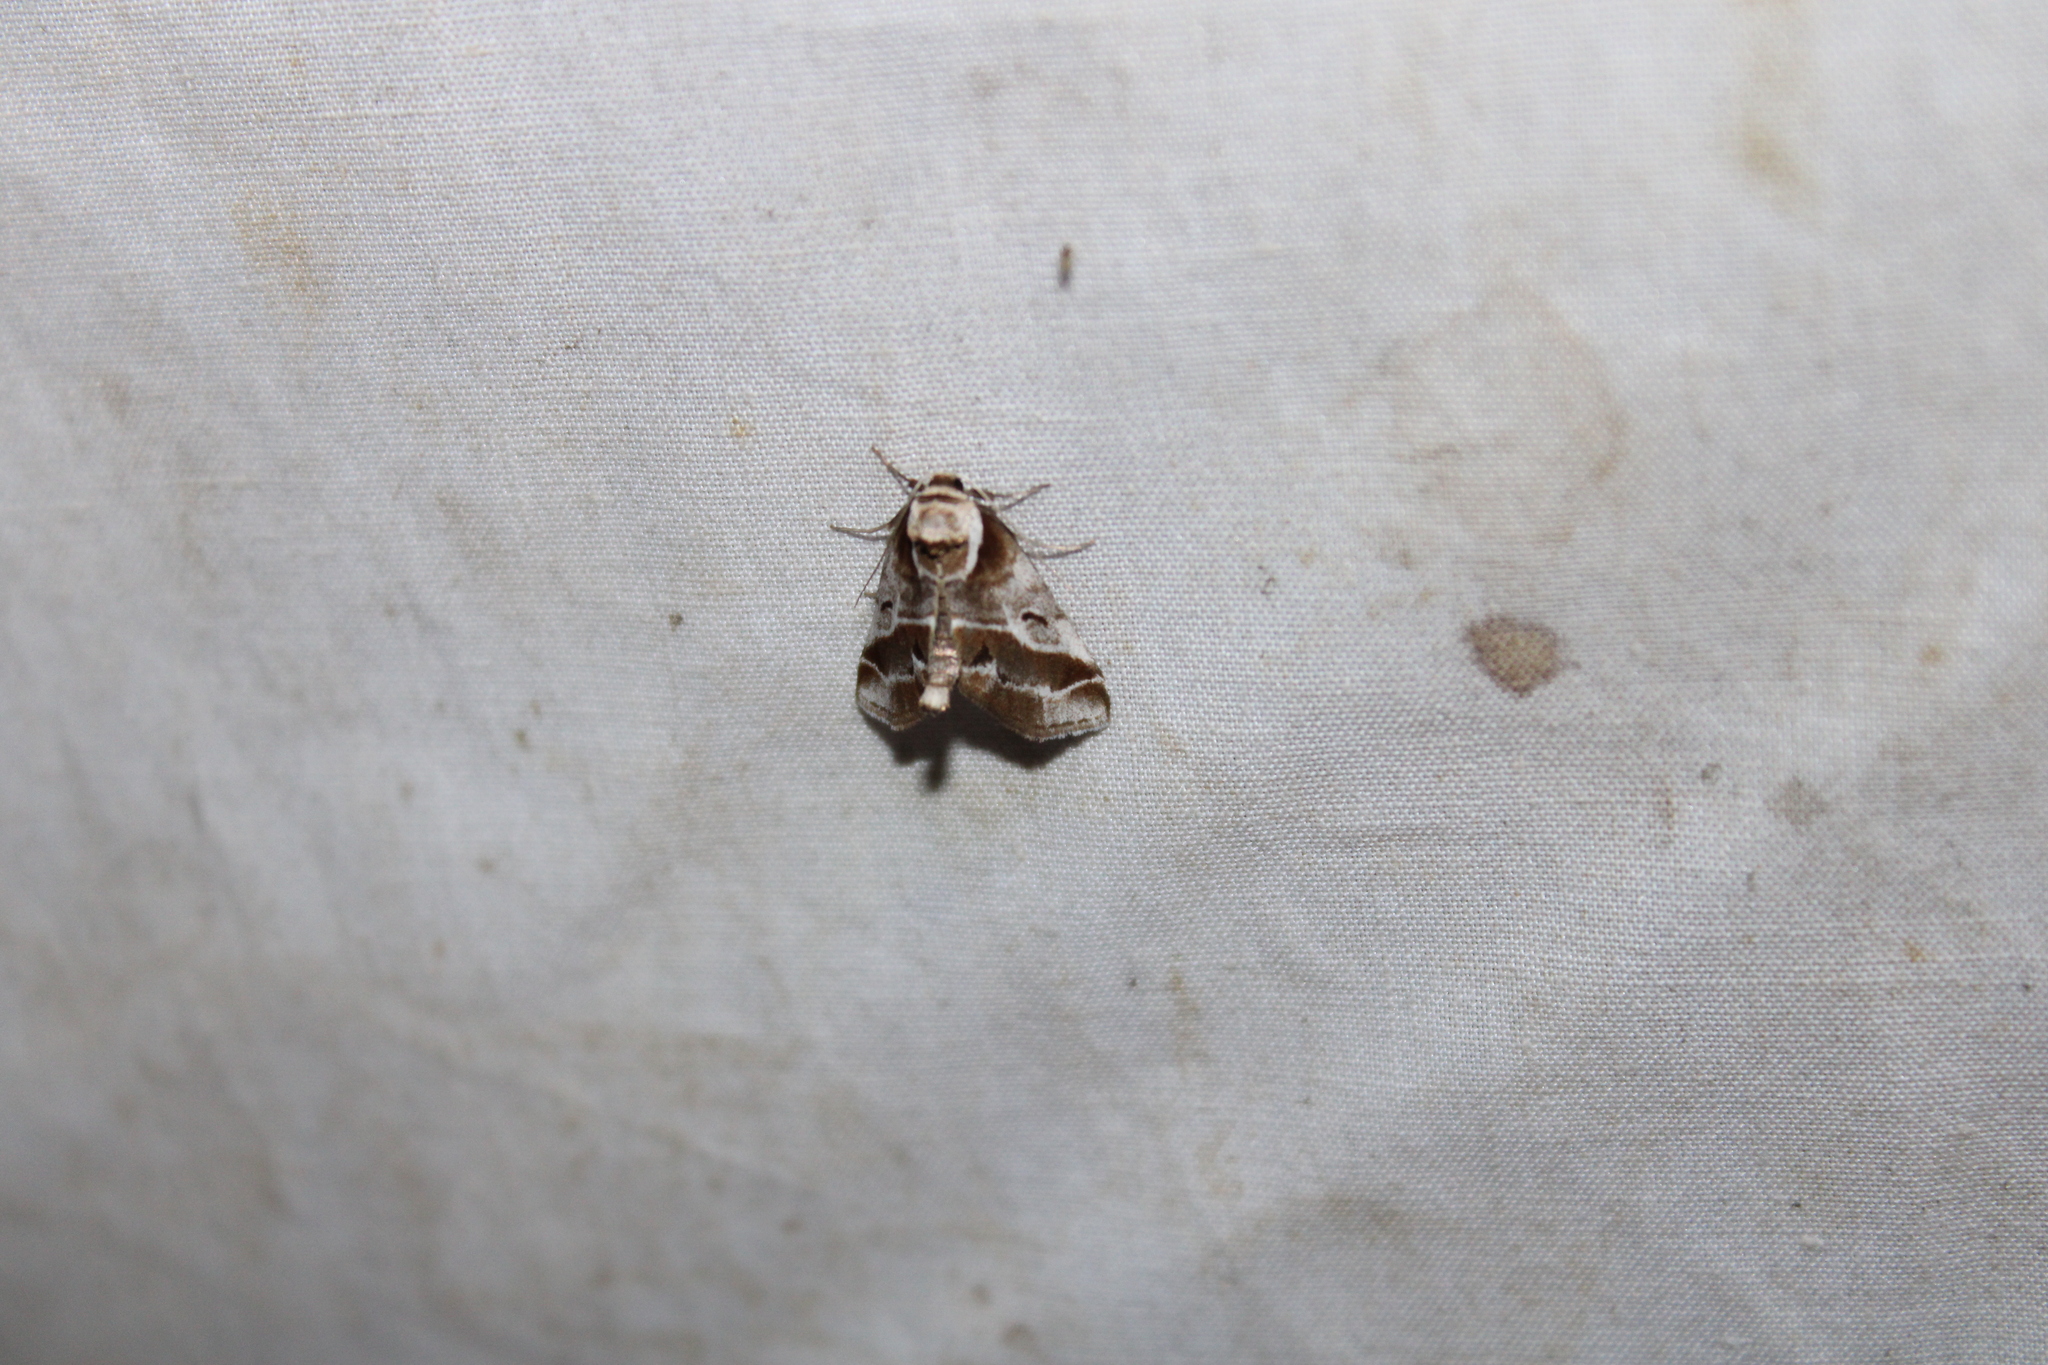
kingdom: Animalia
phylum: Arthropoda
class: Insecta
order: Lepidoptera
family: Nolidae
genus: Baileya
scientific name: Baileya doubledayi
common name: Doubleday's baileya moth
